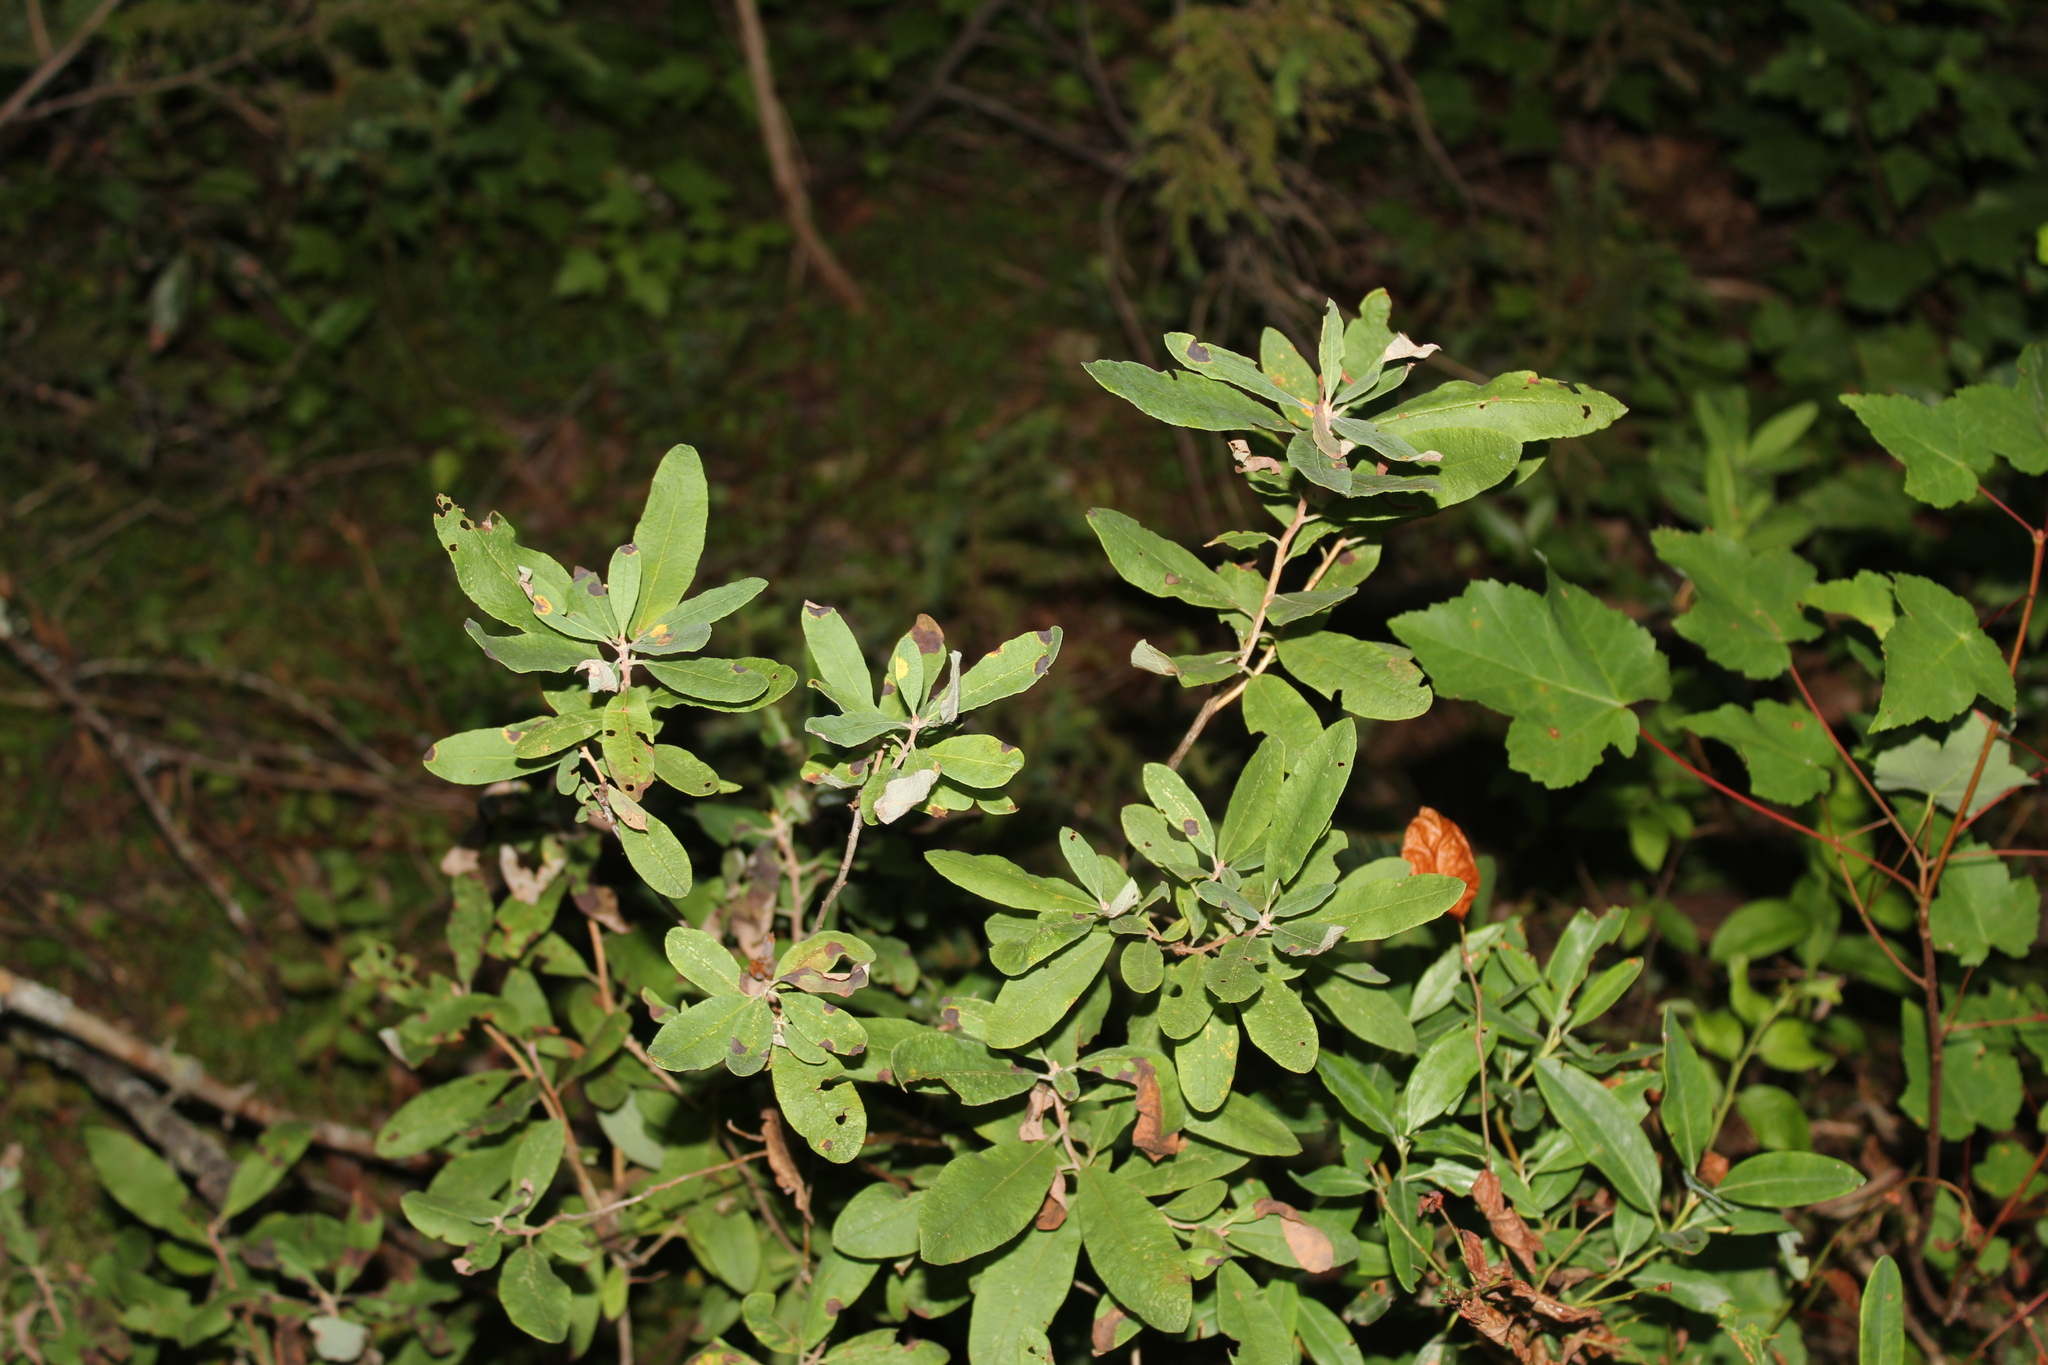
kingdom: Plantae
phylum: Tracheophyta
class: Magnoliopsida
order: Ericales
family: Ericaceae
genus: Rhododendron
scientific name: Rhododendron canadense
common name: Rhodora
